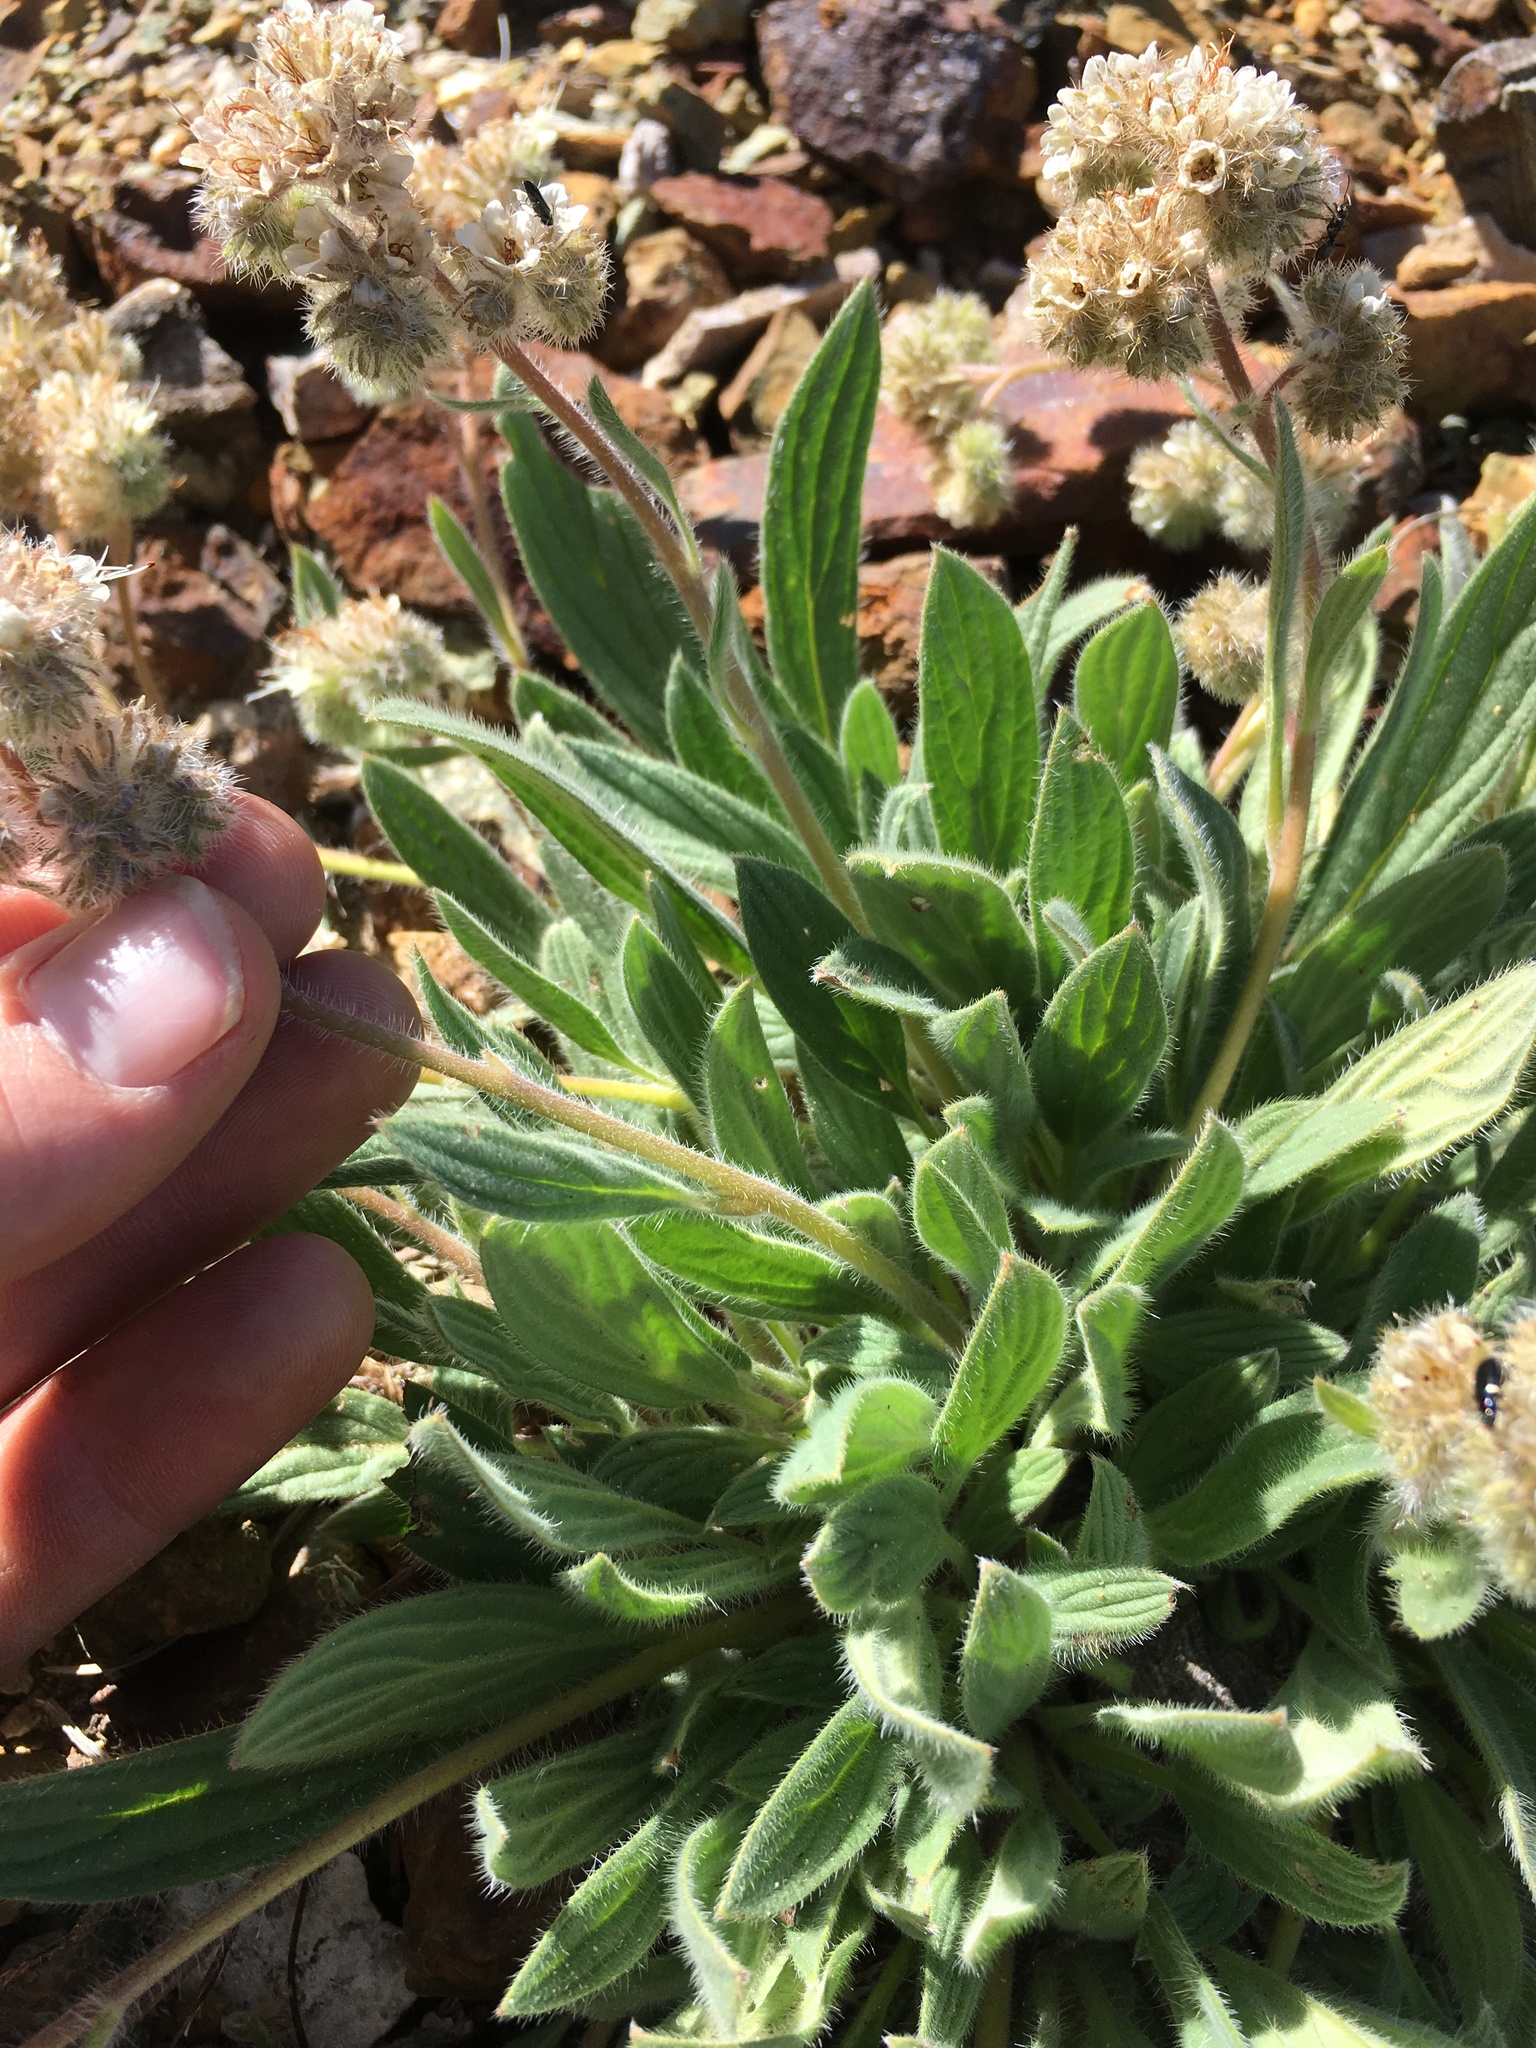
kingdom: Plantae
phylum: Tracheophyta
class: Magnoliopsida
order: Boraginales
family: Hydrophyllaceae
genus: Phacelia
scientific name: Phacelia hastata
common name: Silver-leaved phacelia
